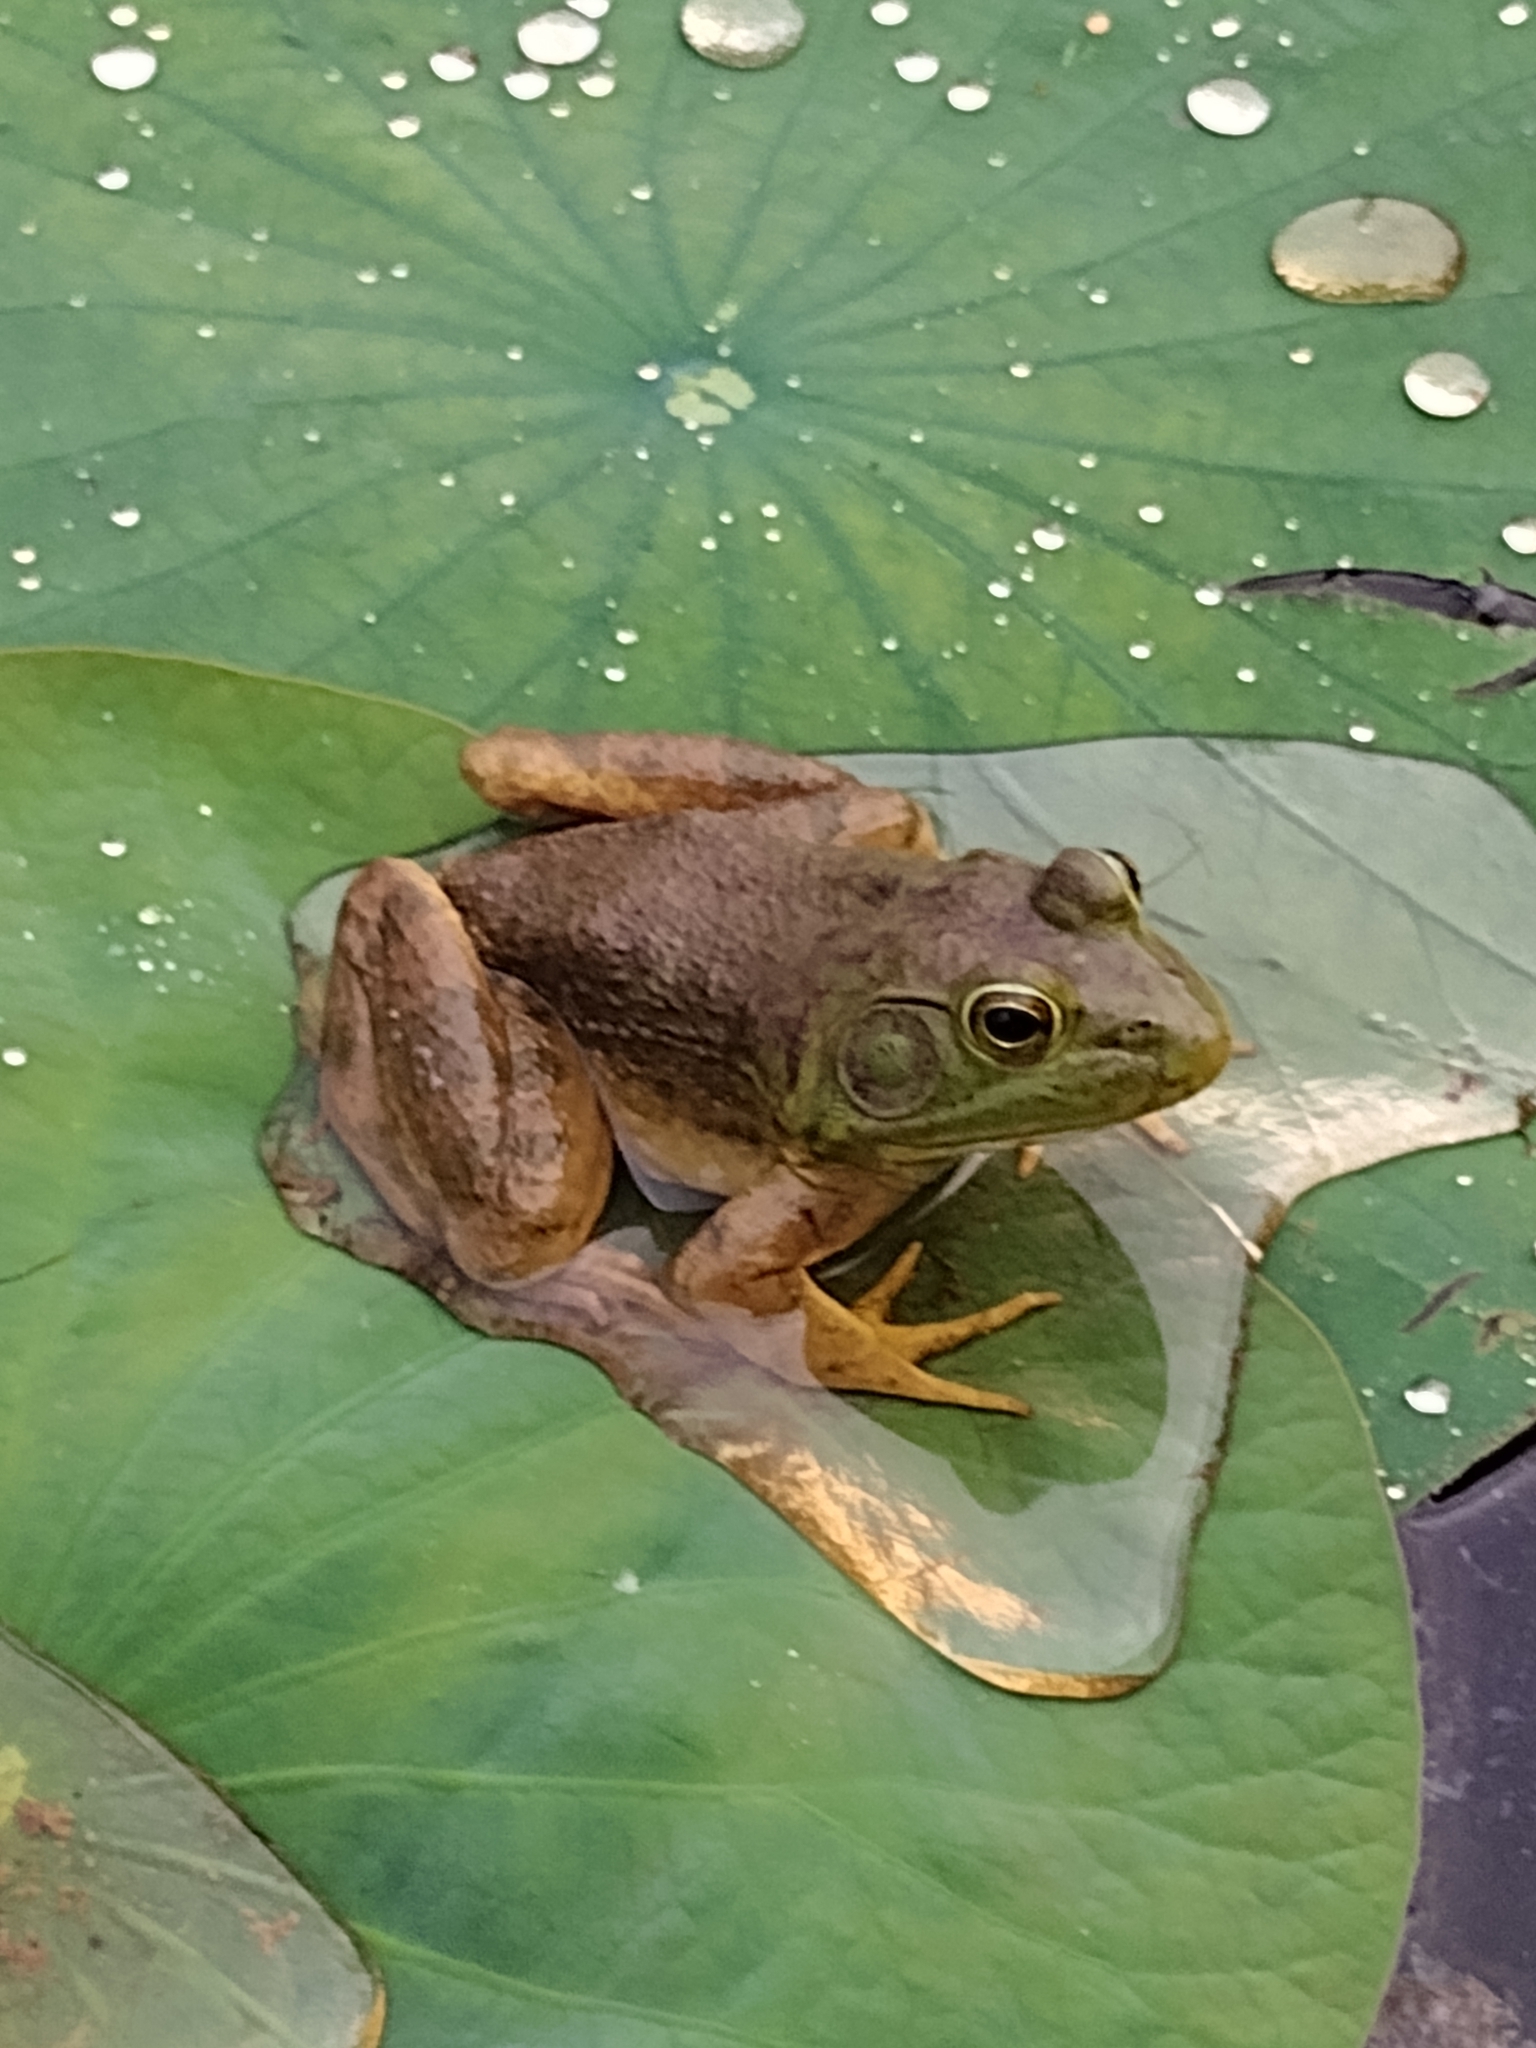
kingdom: Animalia
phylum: Chordata
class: Amphibia
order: Anura
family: Ranidae
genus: Lithobates
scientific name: Lithobates catesbeianus
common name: American bullfrog
